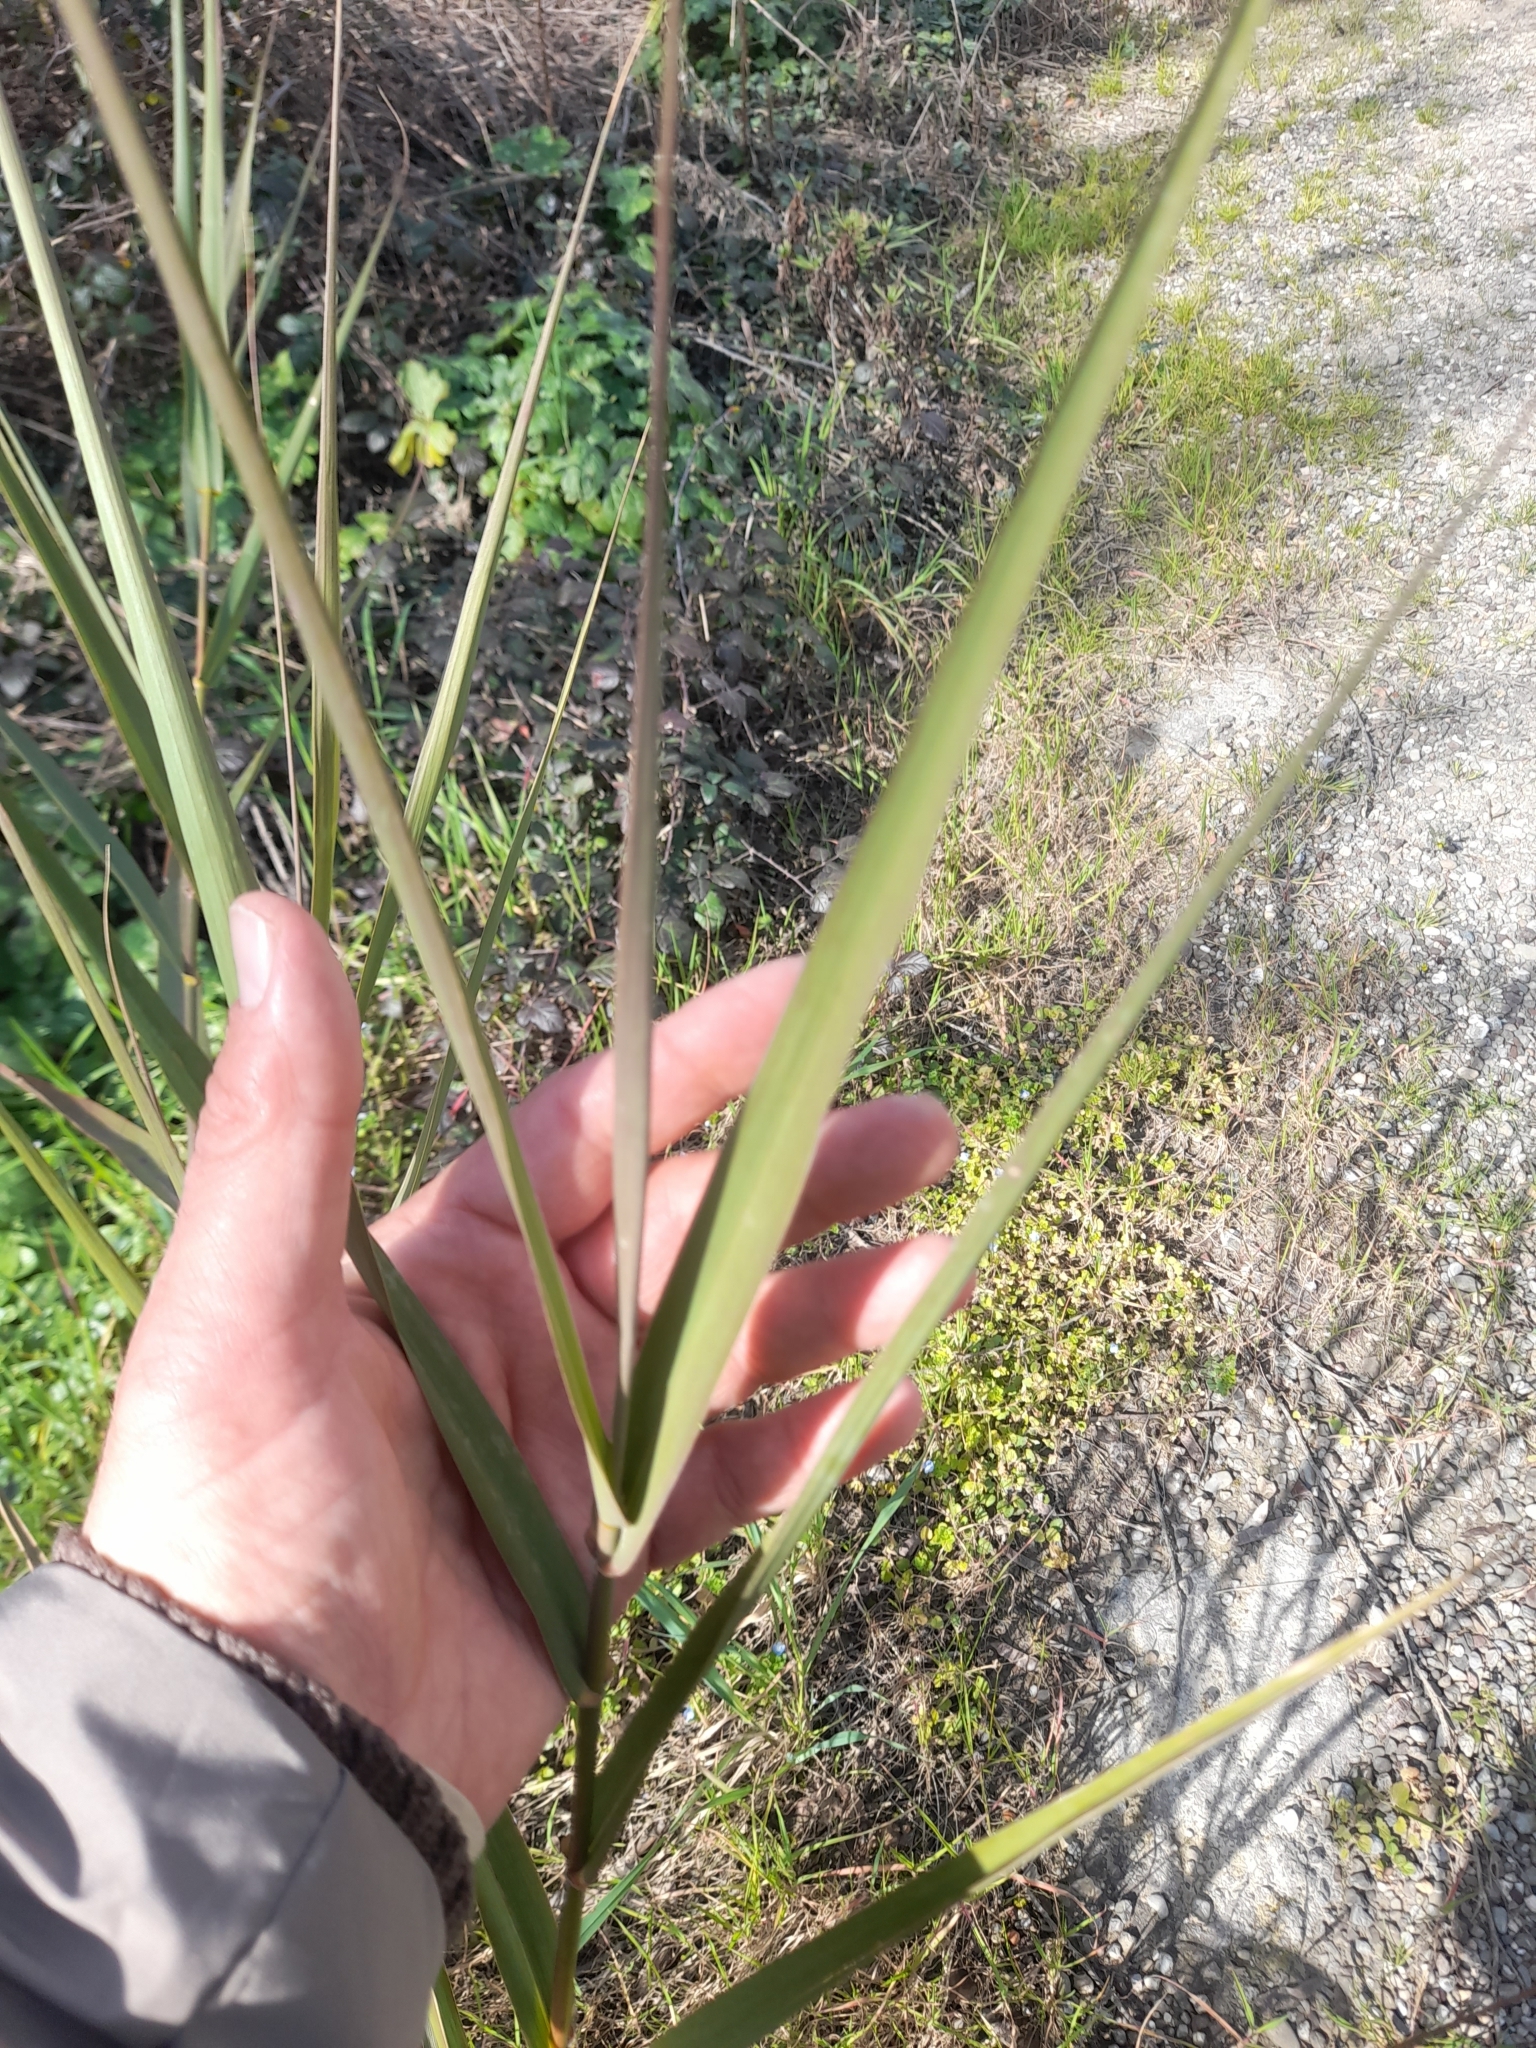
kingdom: Plantae
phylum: Tracheophyta
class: Liliopsida
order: Poales
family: Poaceae
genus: Phragmites
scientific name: Phragmites australis
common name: Common reed
